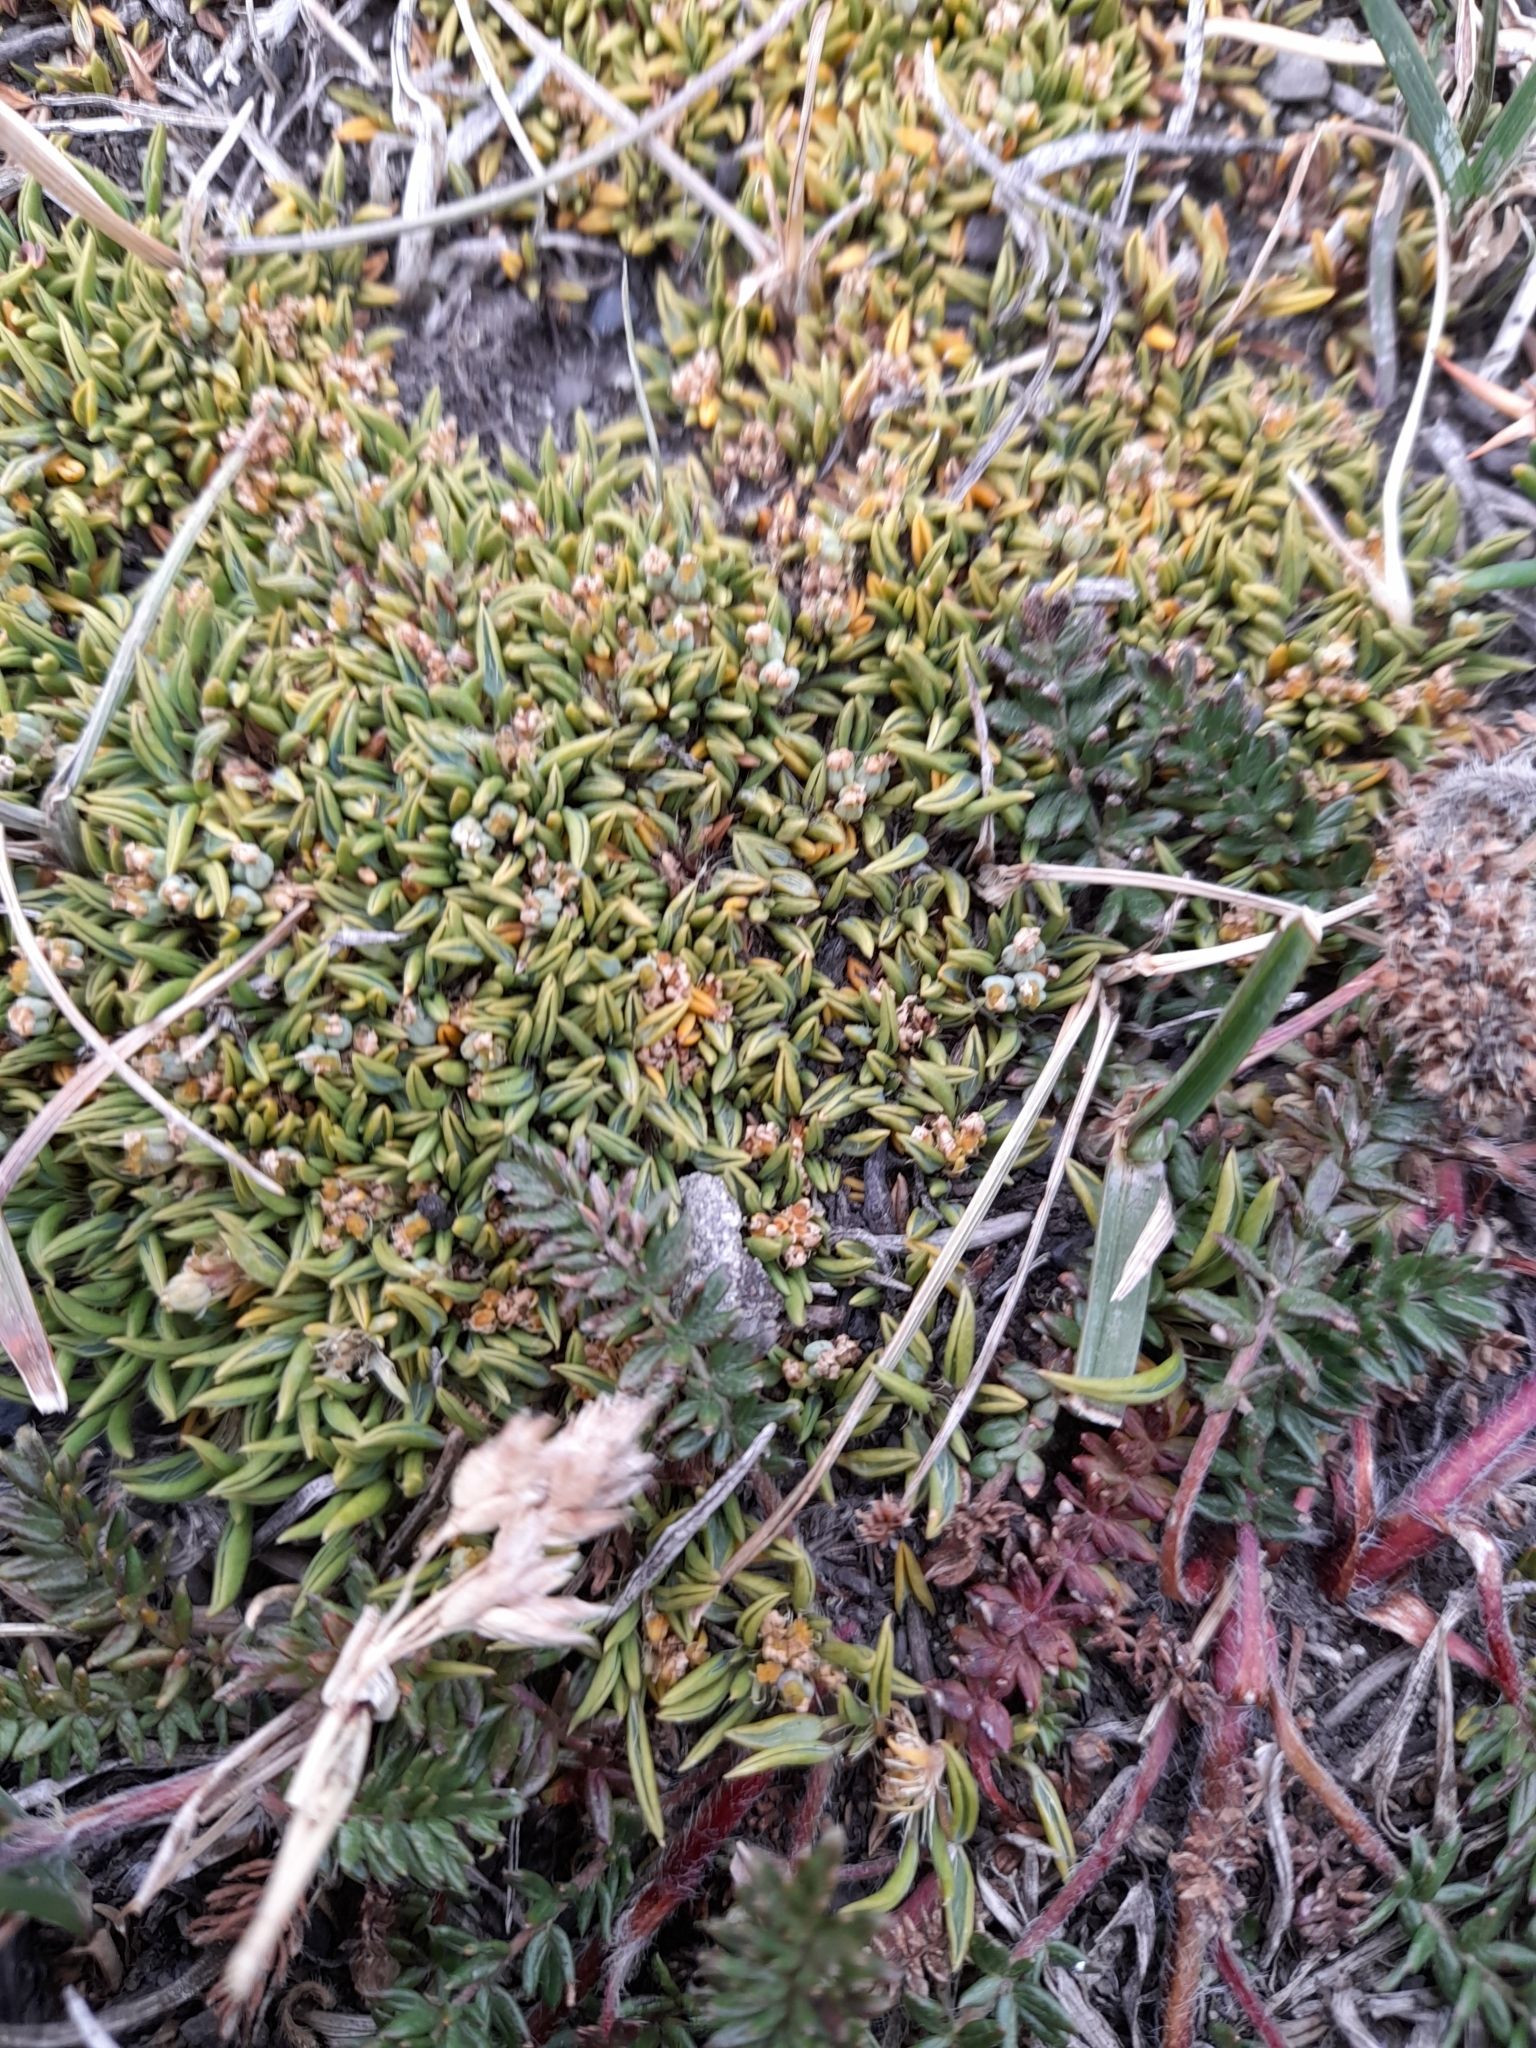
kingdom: Plantae
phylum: Tracheophyta
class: Magnoliopsida
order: Apiales
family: Apiaceae
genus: Azorella
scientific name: Azorella filamentosa
